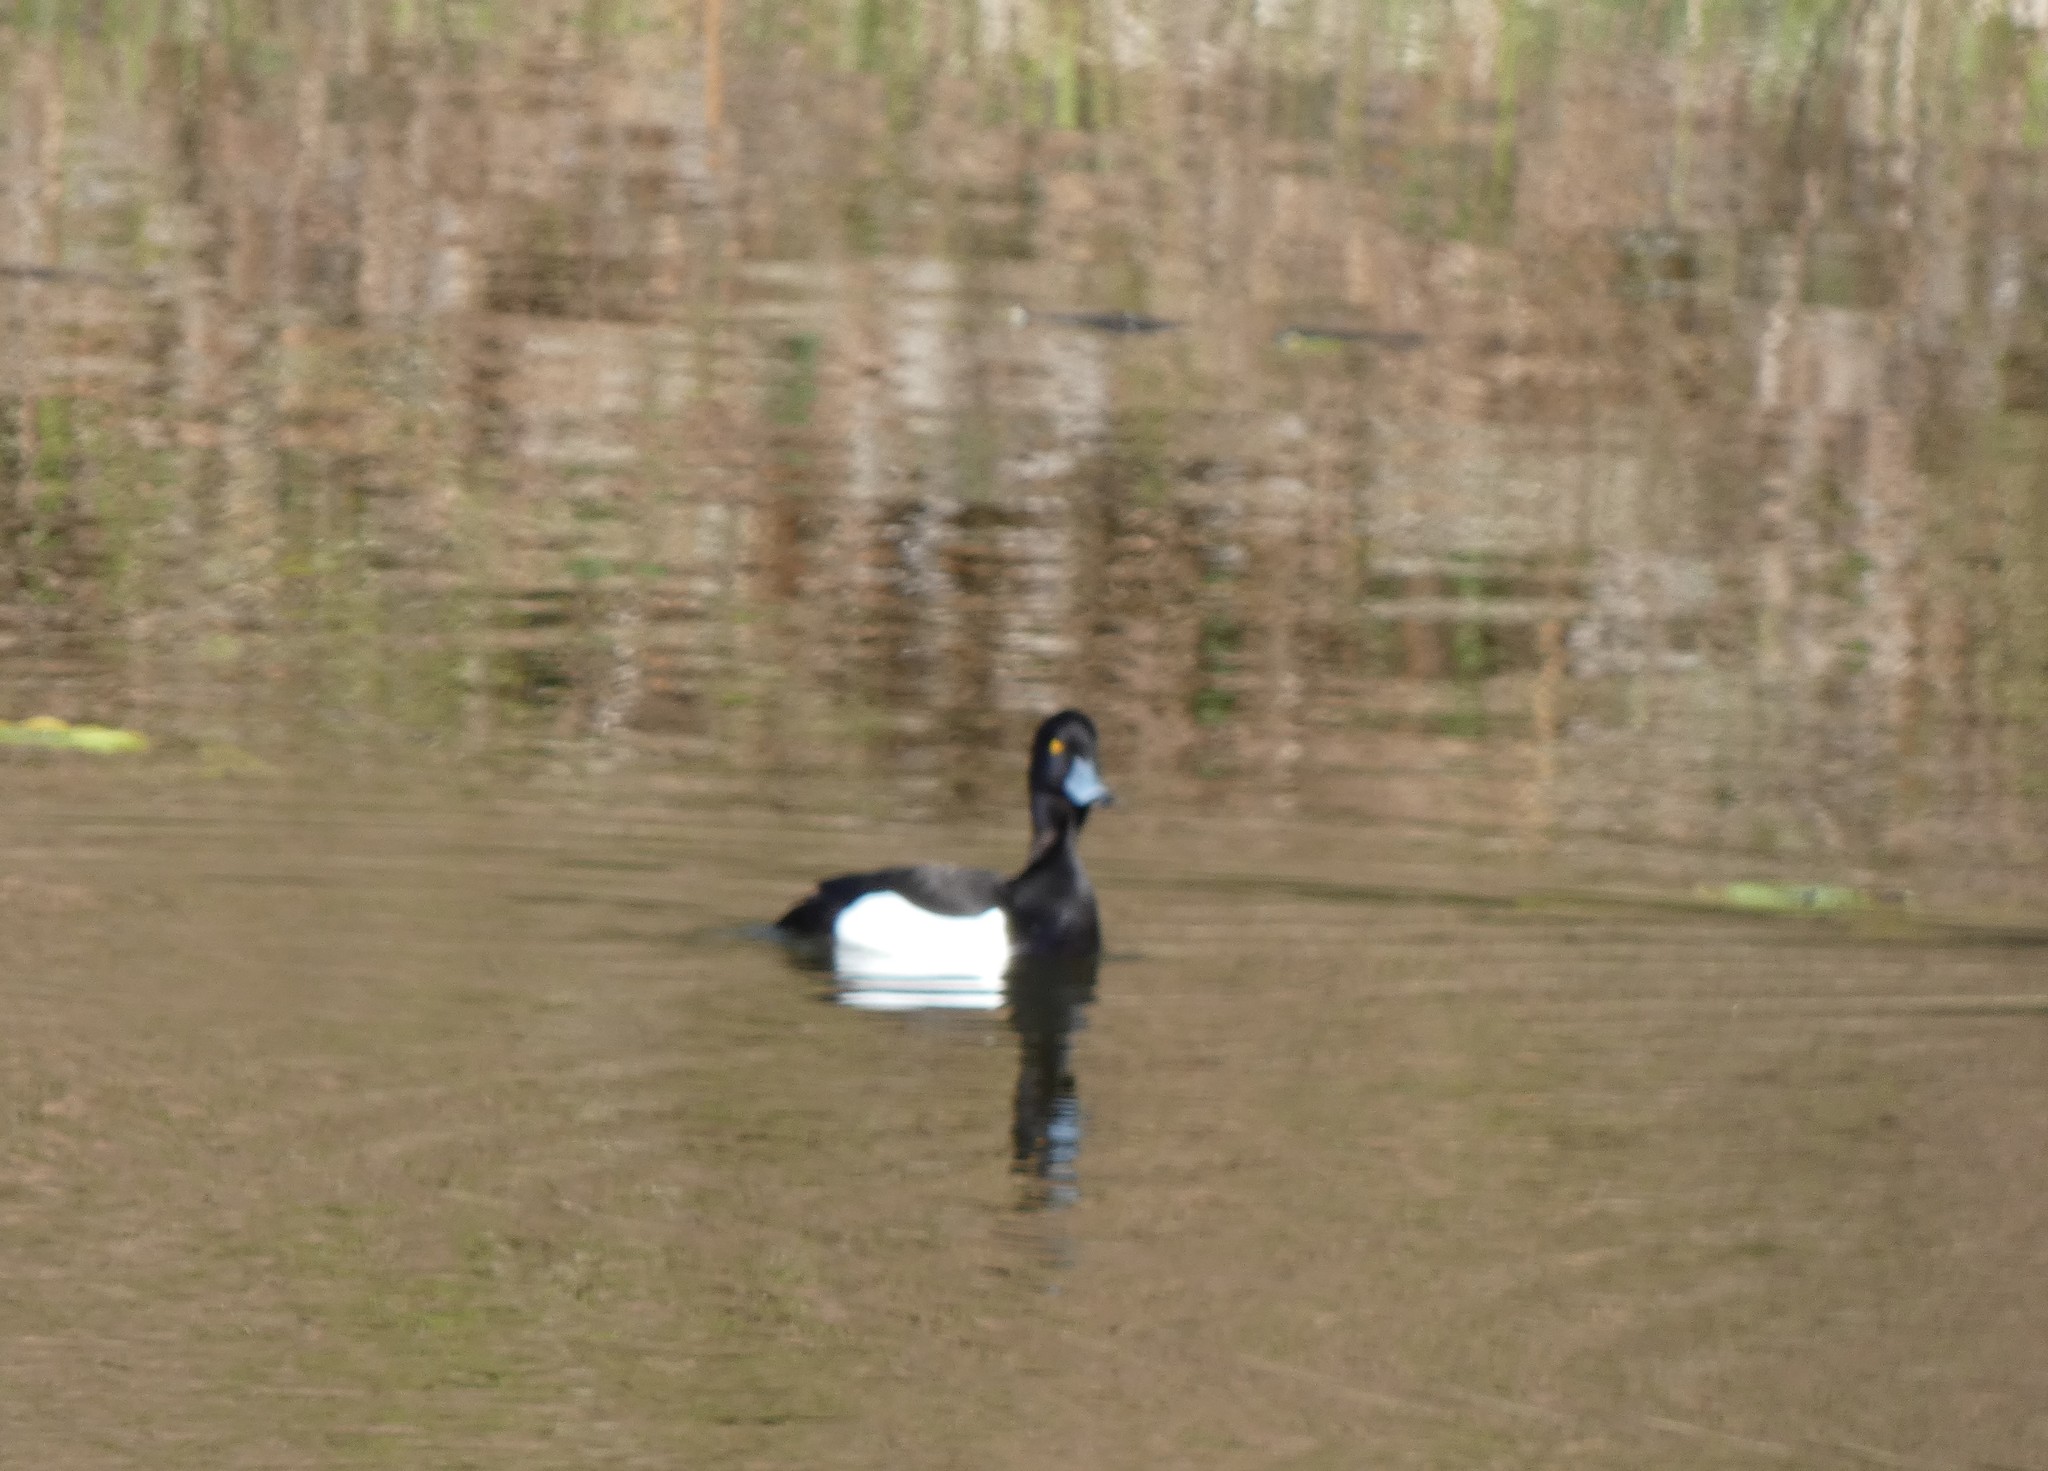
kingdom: Animalia
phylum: Chordata
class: Aves
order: Anseriformes
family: Anatidae
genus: Aythya
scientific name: Aythya fuligula
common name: Tufted duck
